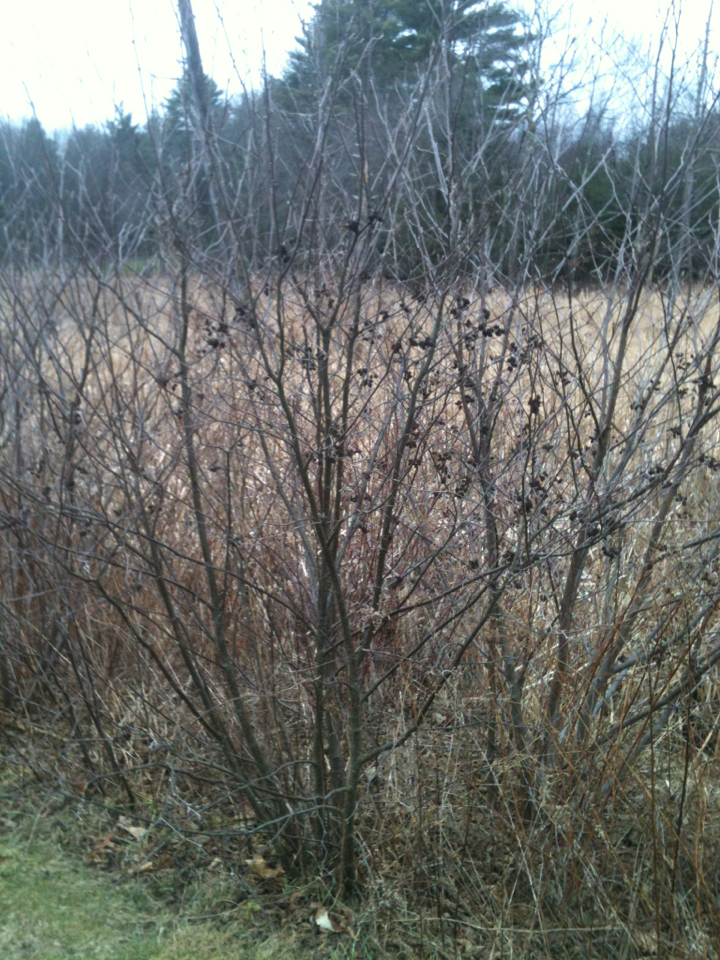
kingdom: Plantae
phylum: Tracheophyta
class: Magnoliopsida
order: Fagales
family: Betulaceae
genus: Alnus
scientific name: Alnus incana
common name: Grey alder
